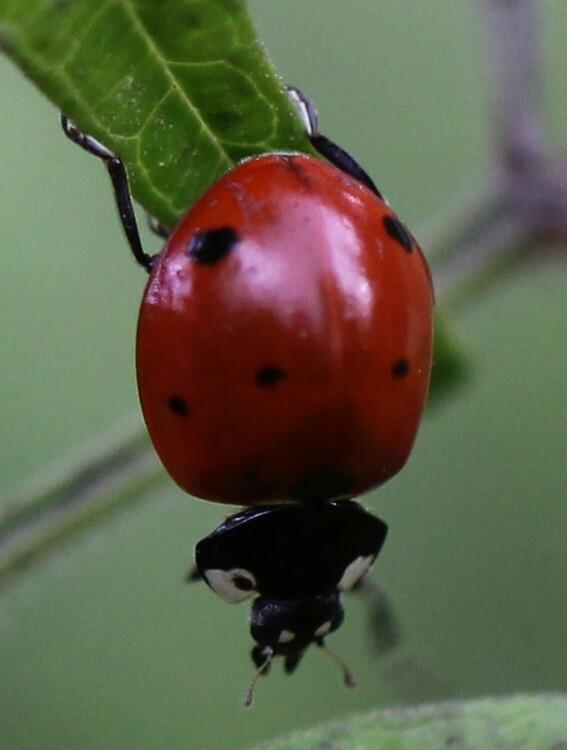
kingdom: Animalia
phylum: Arthropoda
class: Insecta
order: Coleoptera
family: Coccinellidae
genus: Coccinella
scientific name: Coccinella septempunctata
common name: Sevenspotted lady beetle
